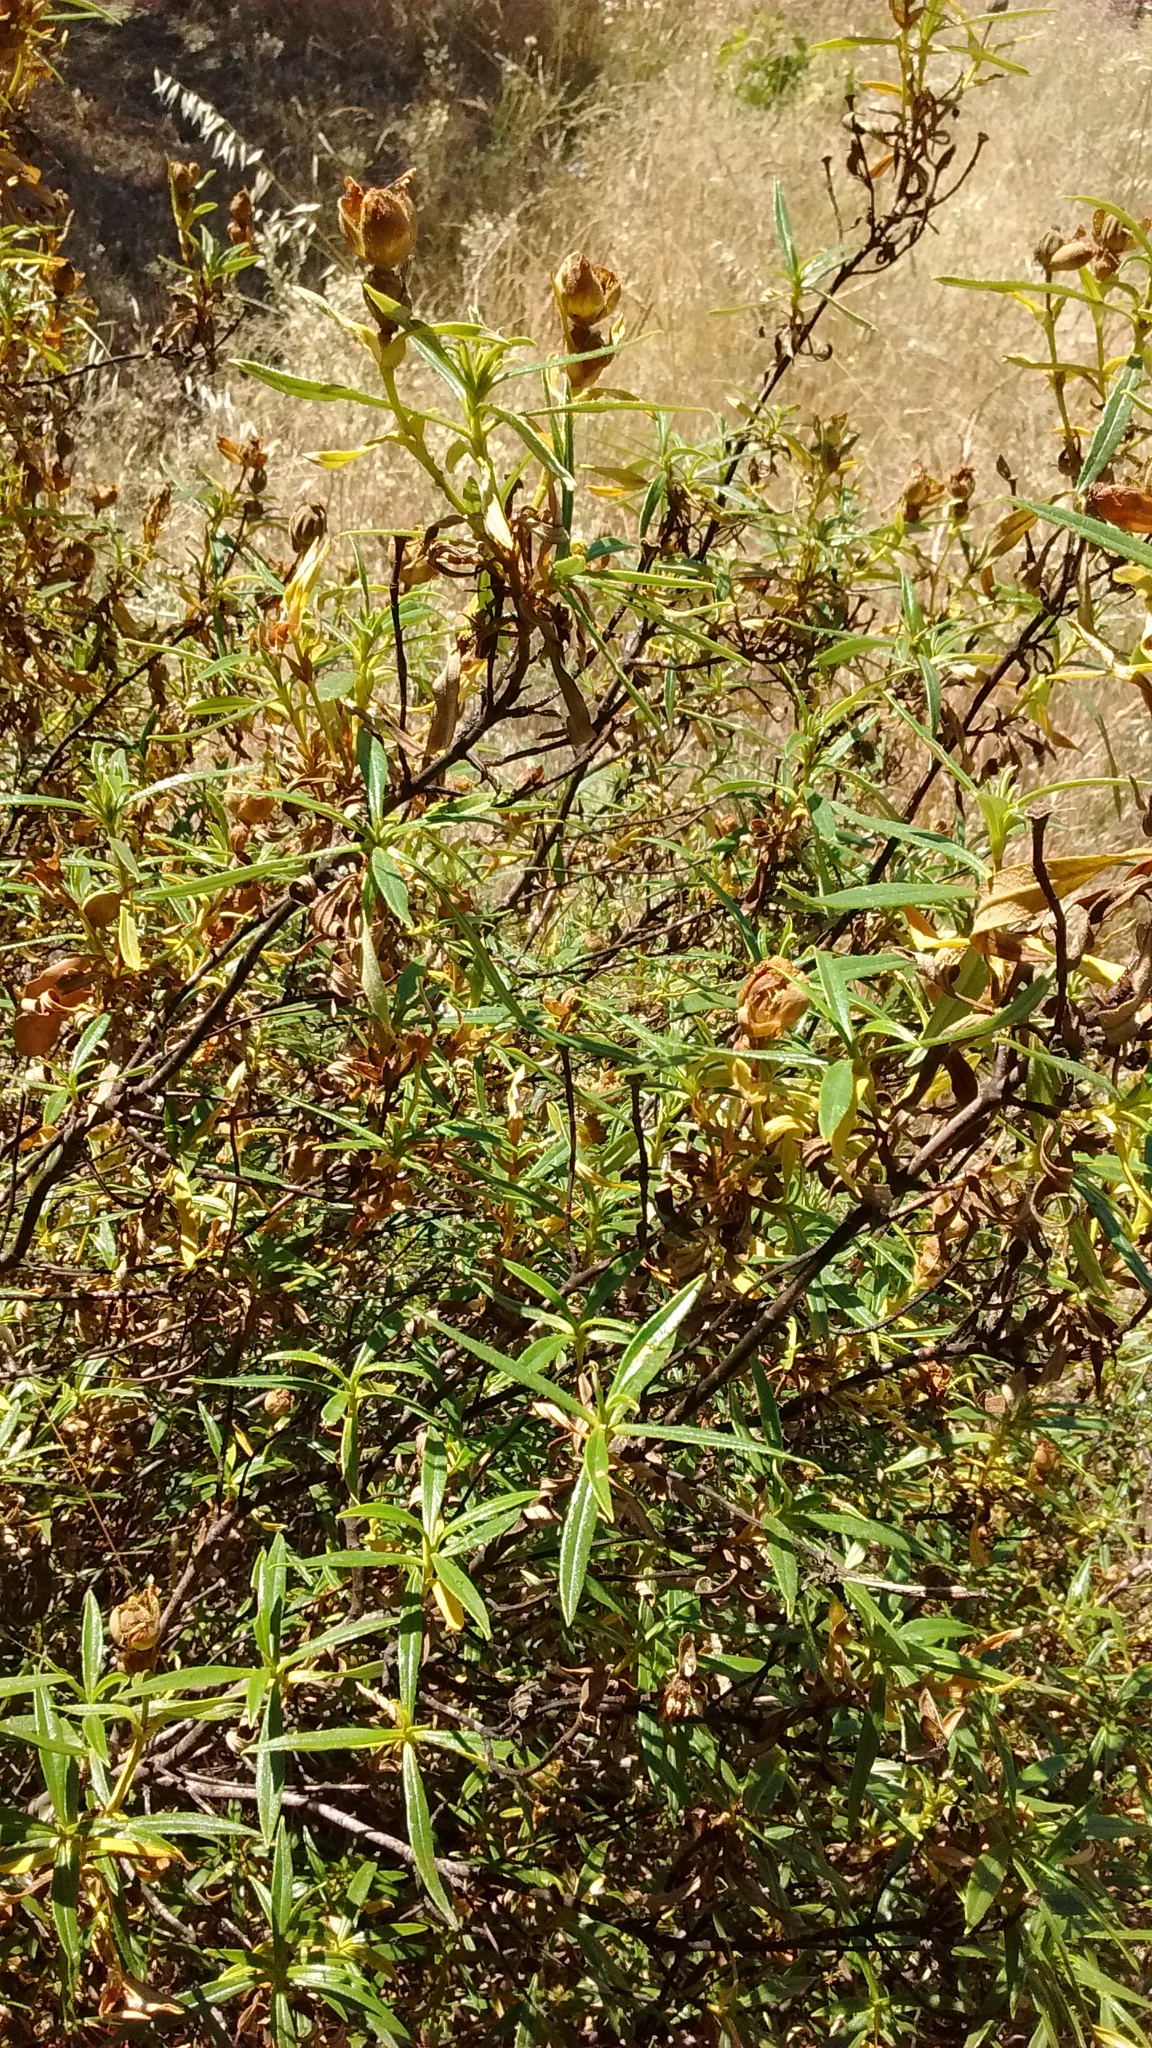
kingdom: Plantae
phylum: Tracheophyta
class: Magnoliopsida
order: Malvales
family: Cistaceae
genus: Cistus
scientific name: Cistus ladanifer
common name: Common gum cistus
